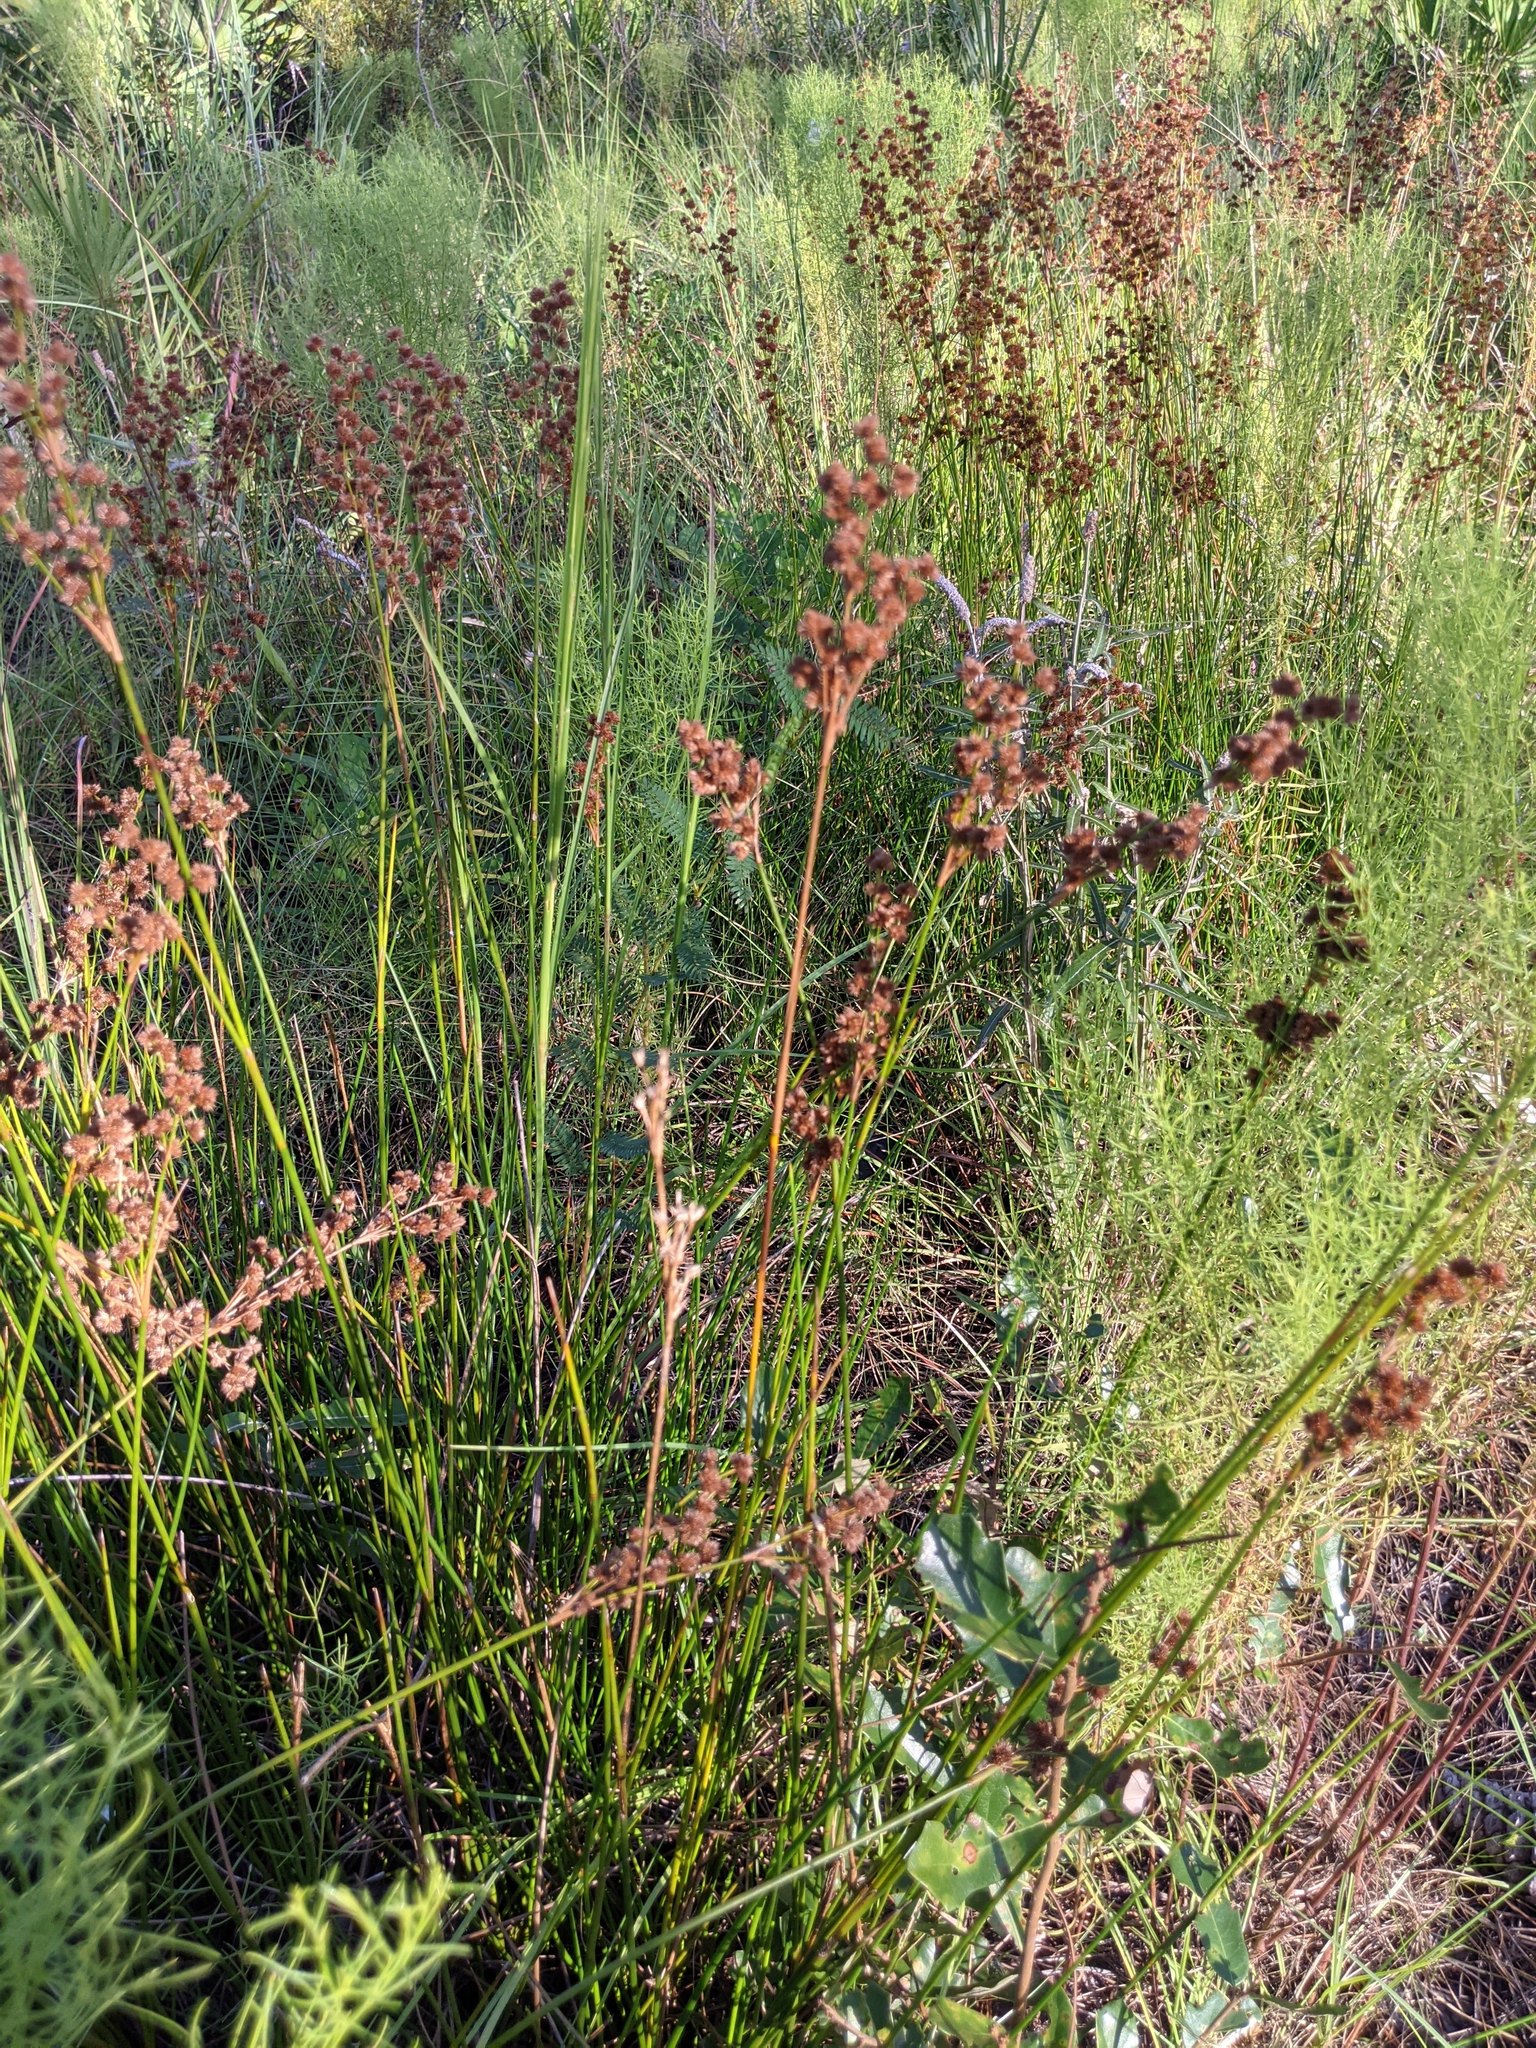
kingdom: Plantae
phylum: Tracheophyta
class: Liliopsida
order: Poales
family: Juncaceae
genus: Juncus
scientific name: Juncus biflorus
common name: Two-flowered rush
